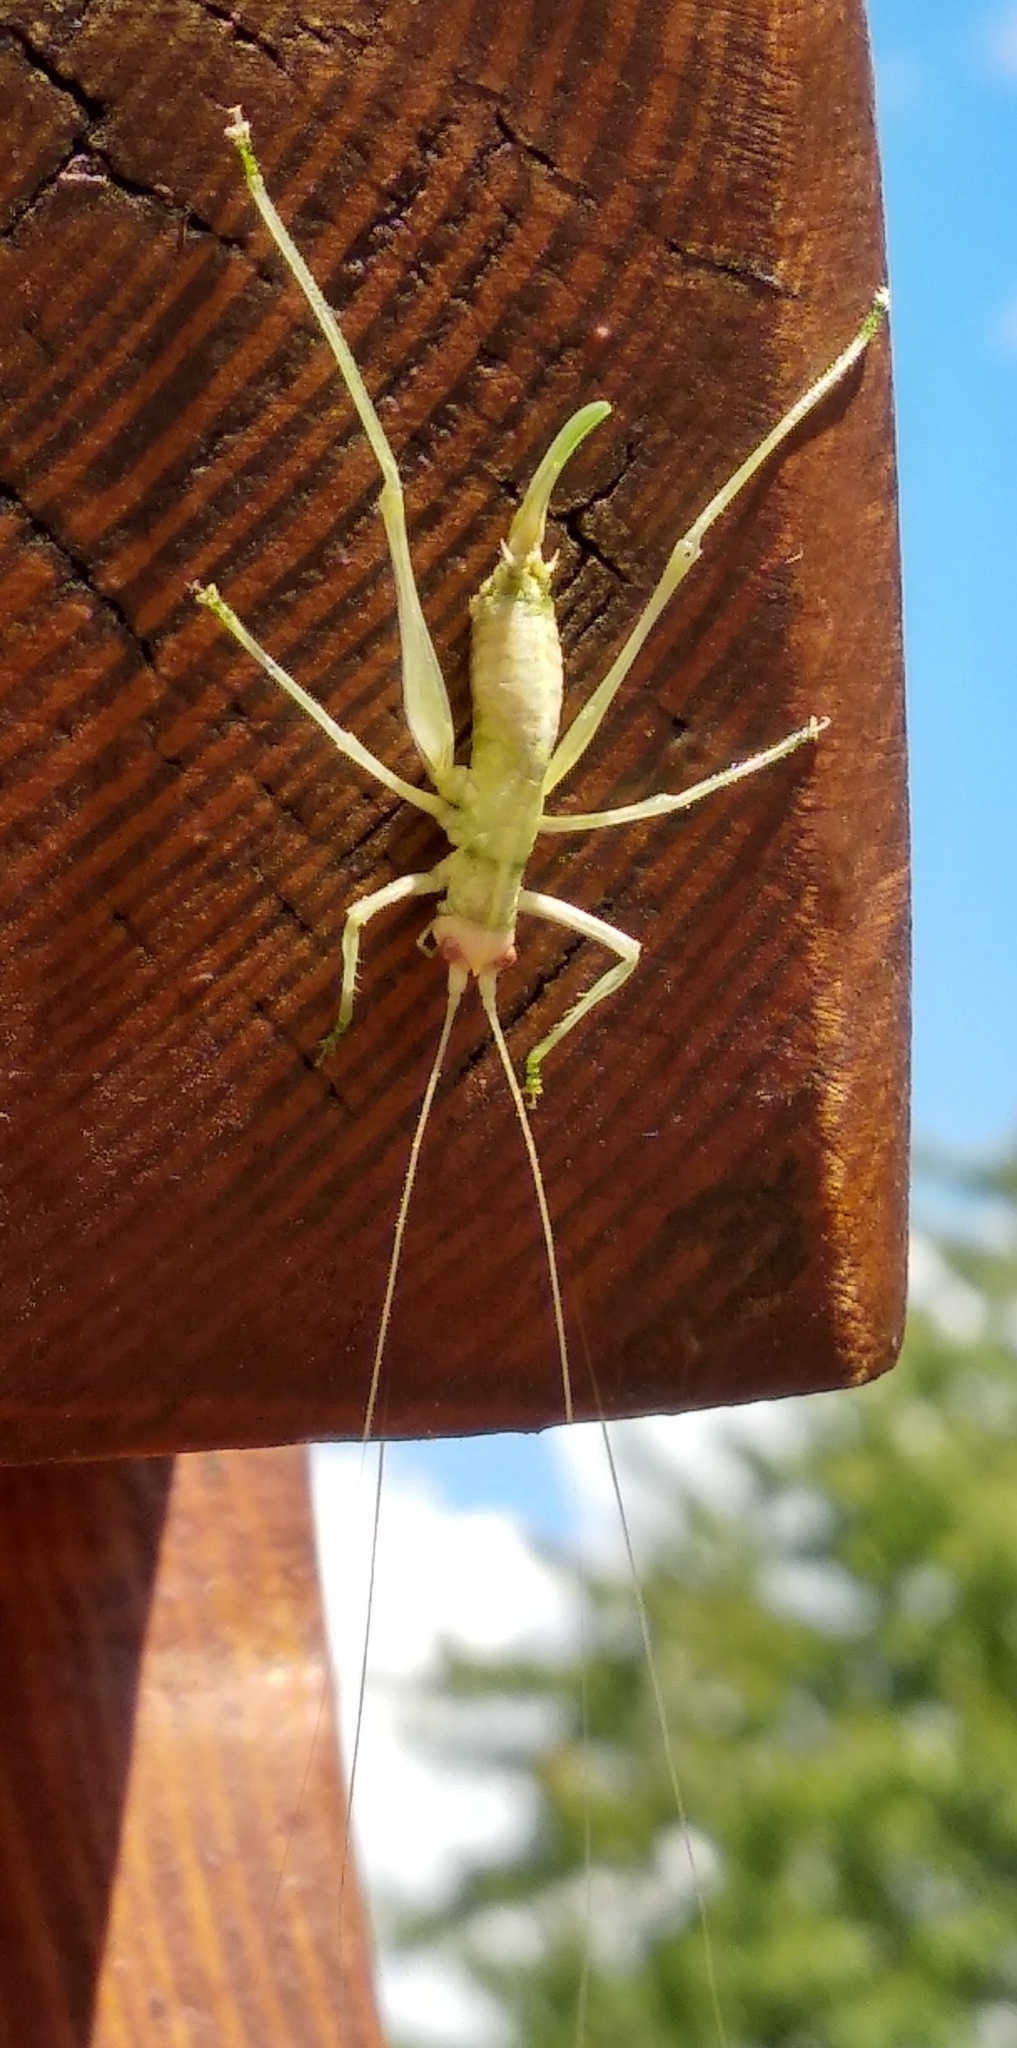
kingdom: Animalia
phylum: Arthropoda
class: Insecta
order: Orthoptera
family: Tettigoniidae
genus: Meconema
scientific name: Meconema meridionale
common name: Southern oak bush-cricket
